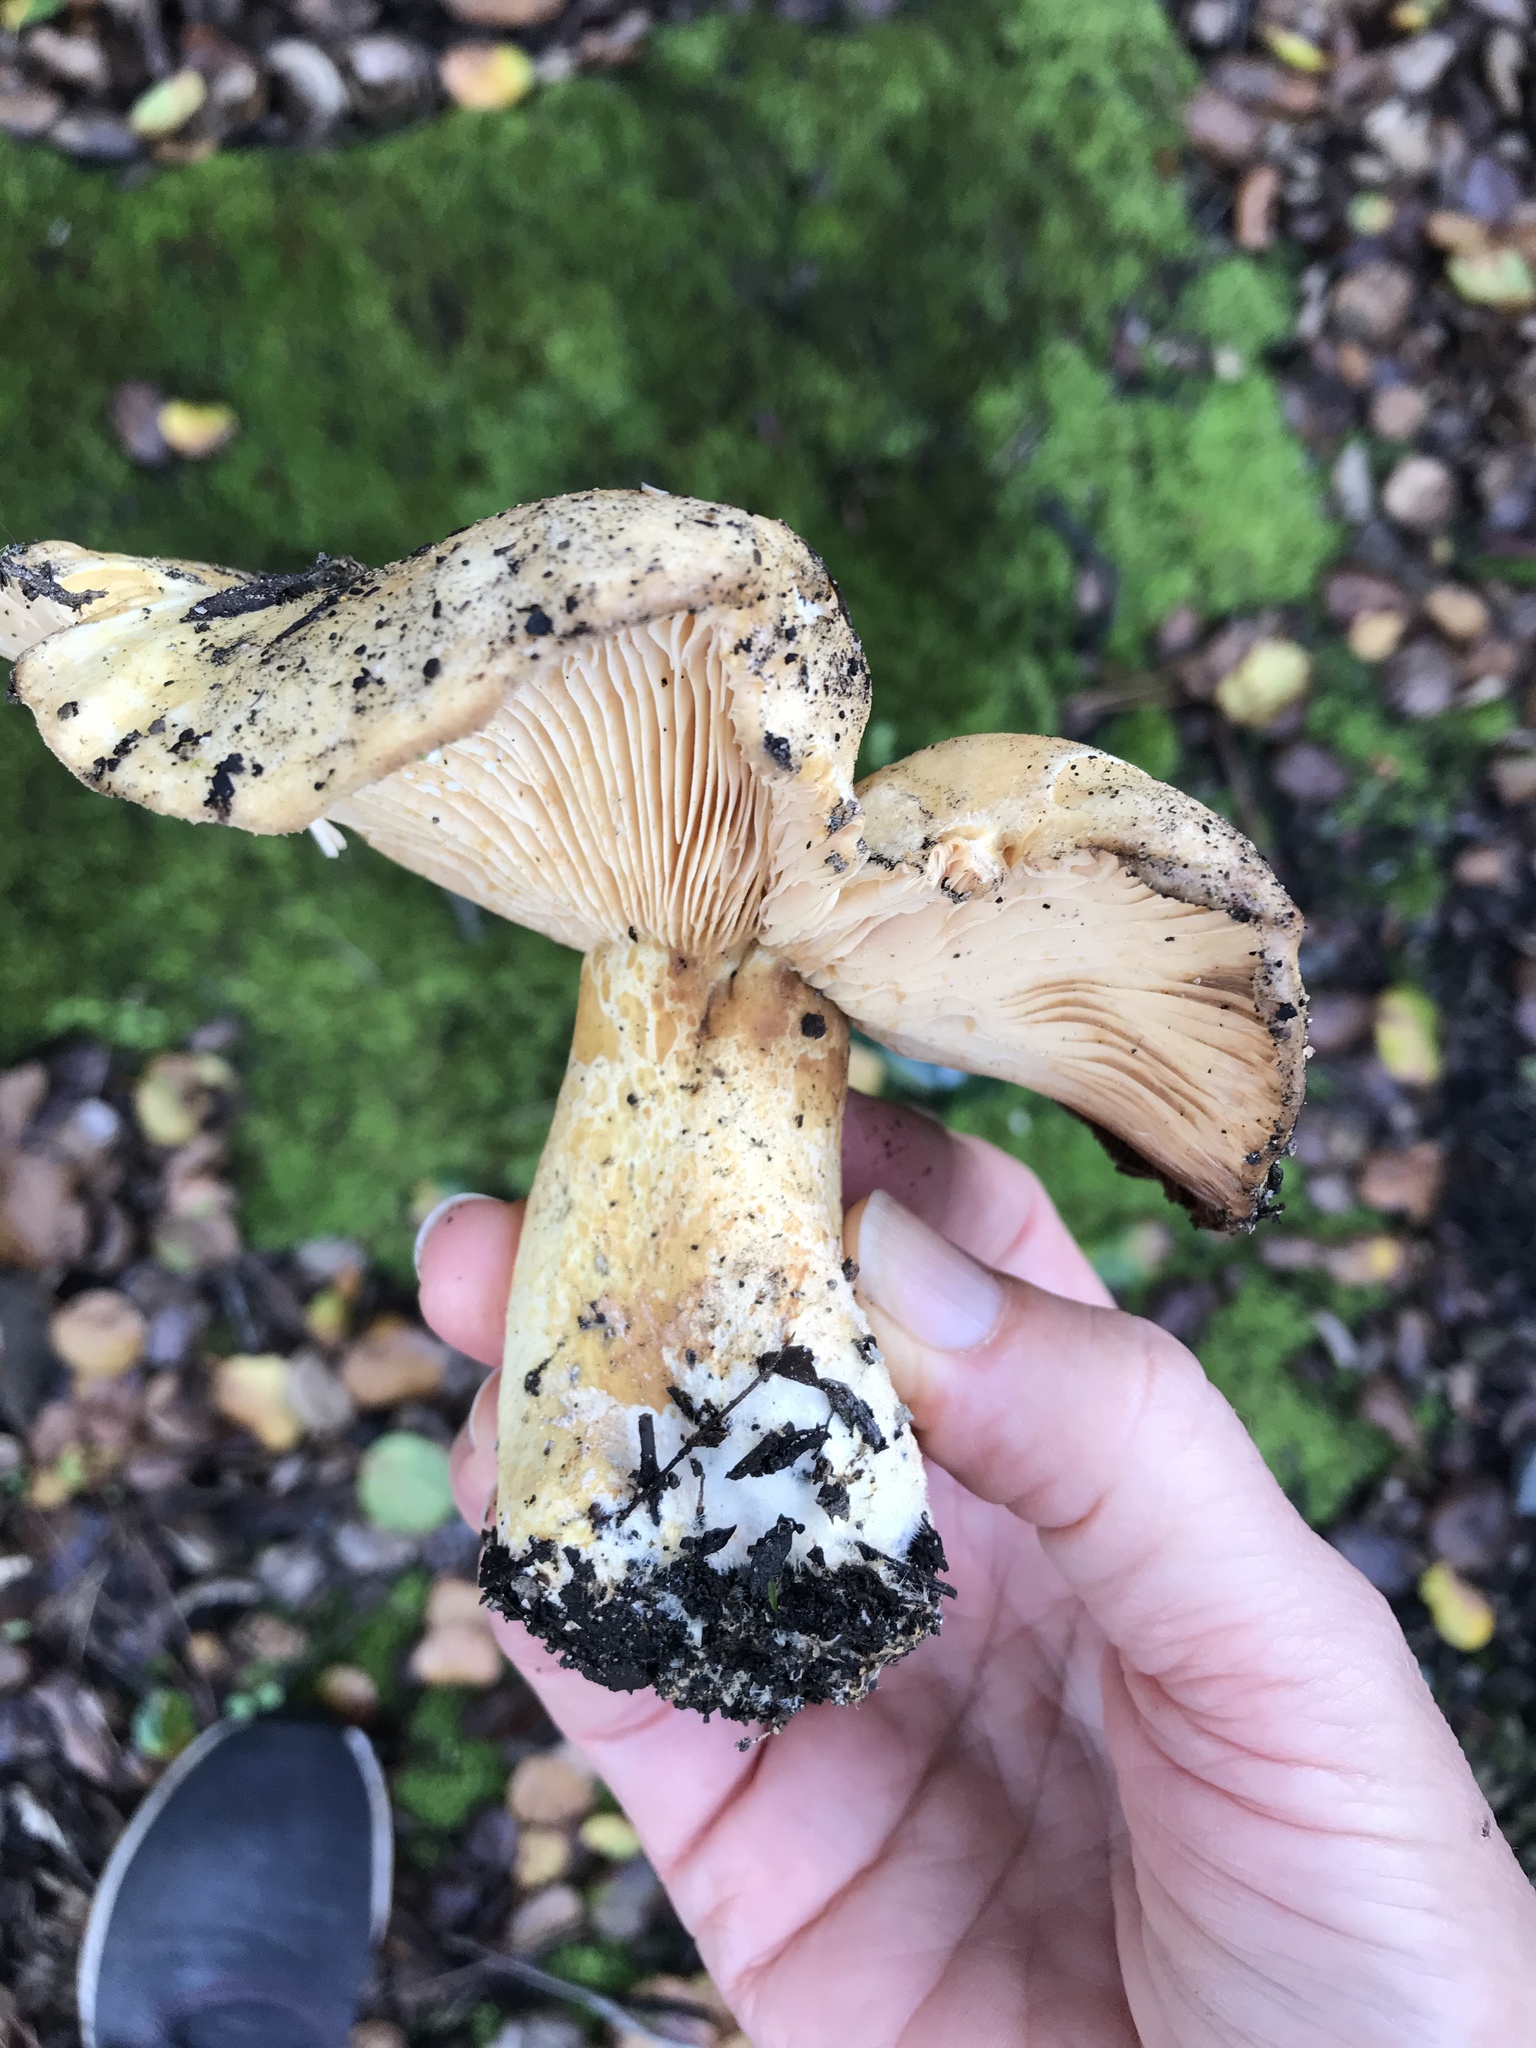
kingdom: Fungi
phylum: Basidiomycota
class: Agaricomycetes
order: Russulales
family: Russulaceae
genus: Lactarius
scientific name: Lactarius alnicola
